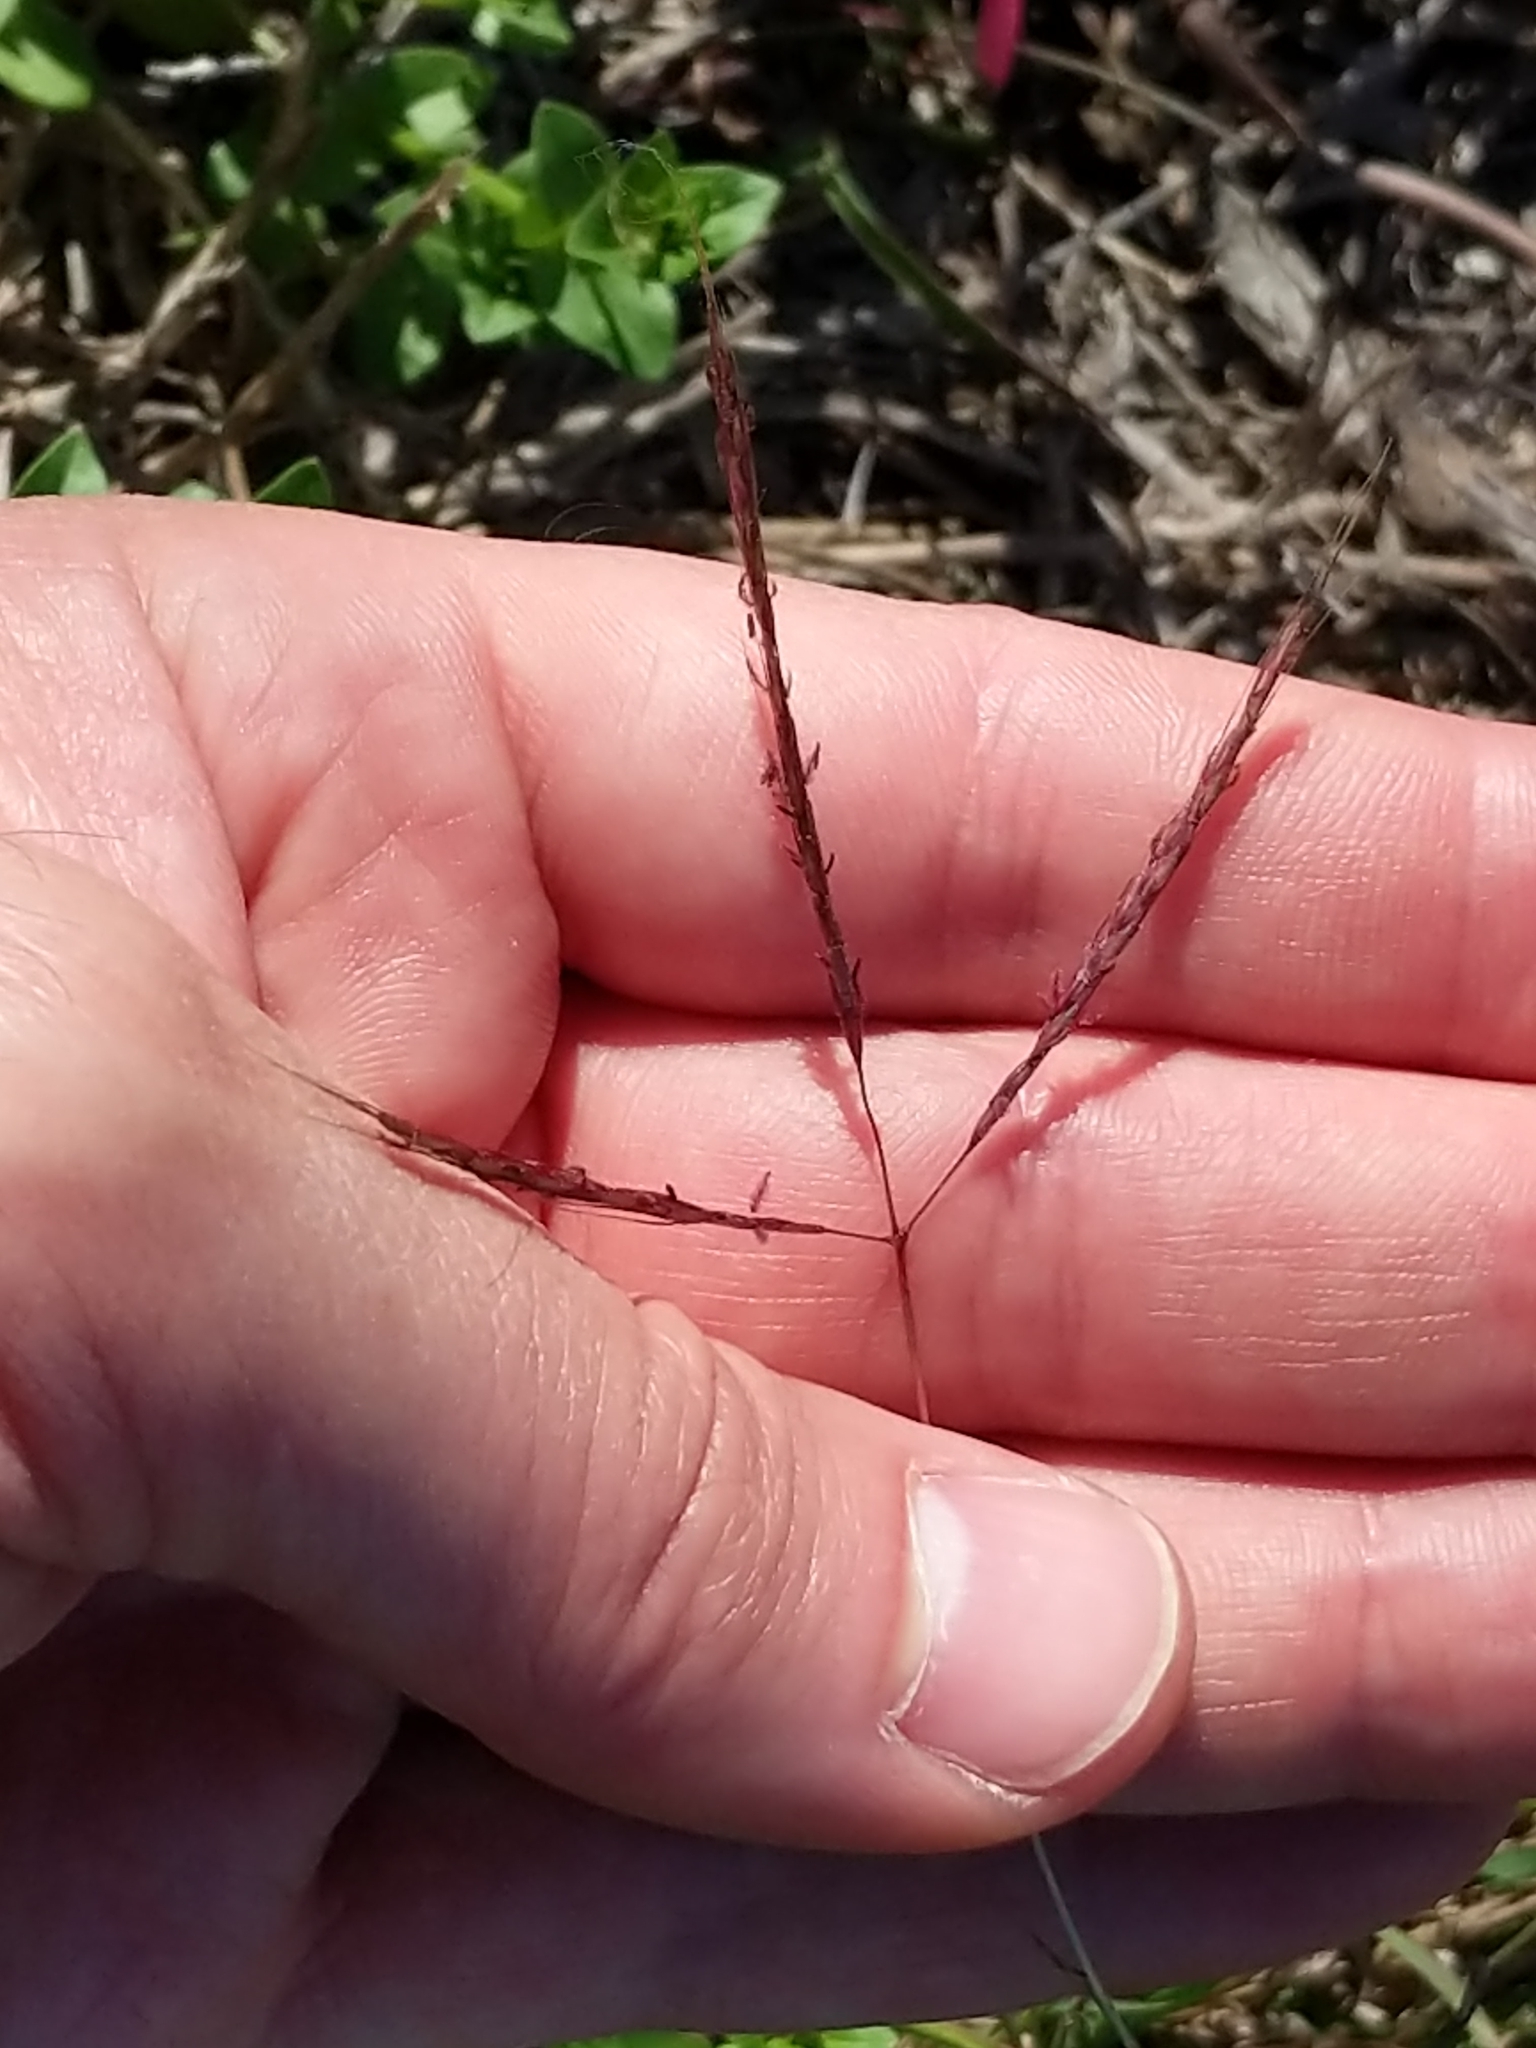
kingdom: Plantae
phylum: Tracheophyta
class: Liliopsida
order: Poales
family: Poaceae
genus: Bothriochloa
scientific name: Bothriochloa ischaemum
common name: Yellow bluestem
